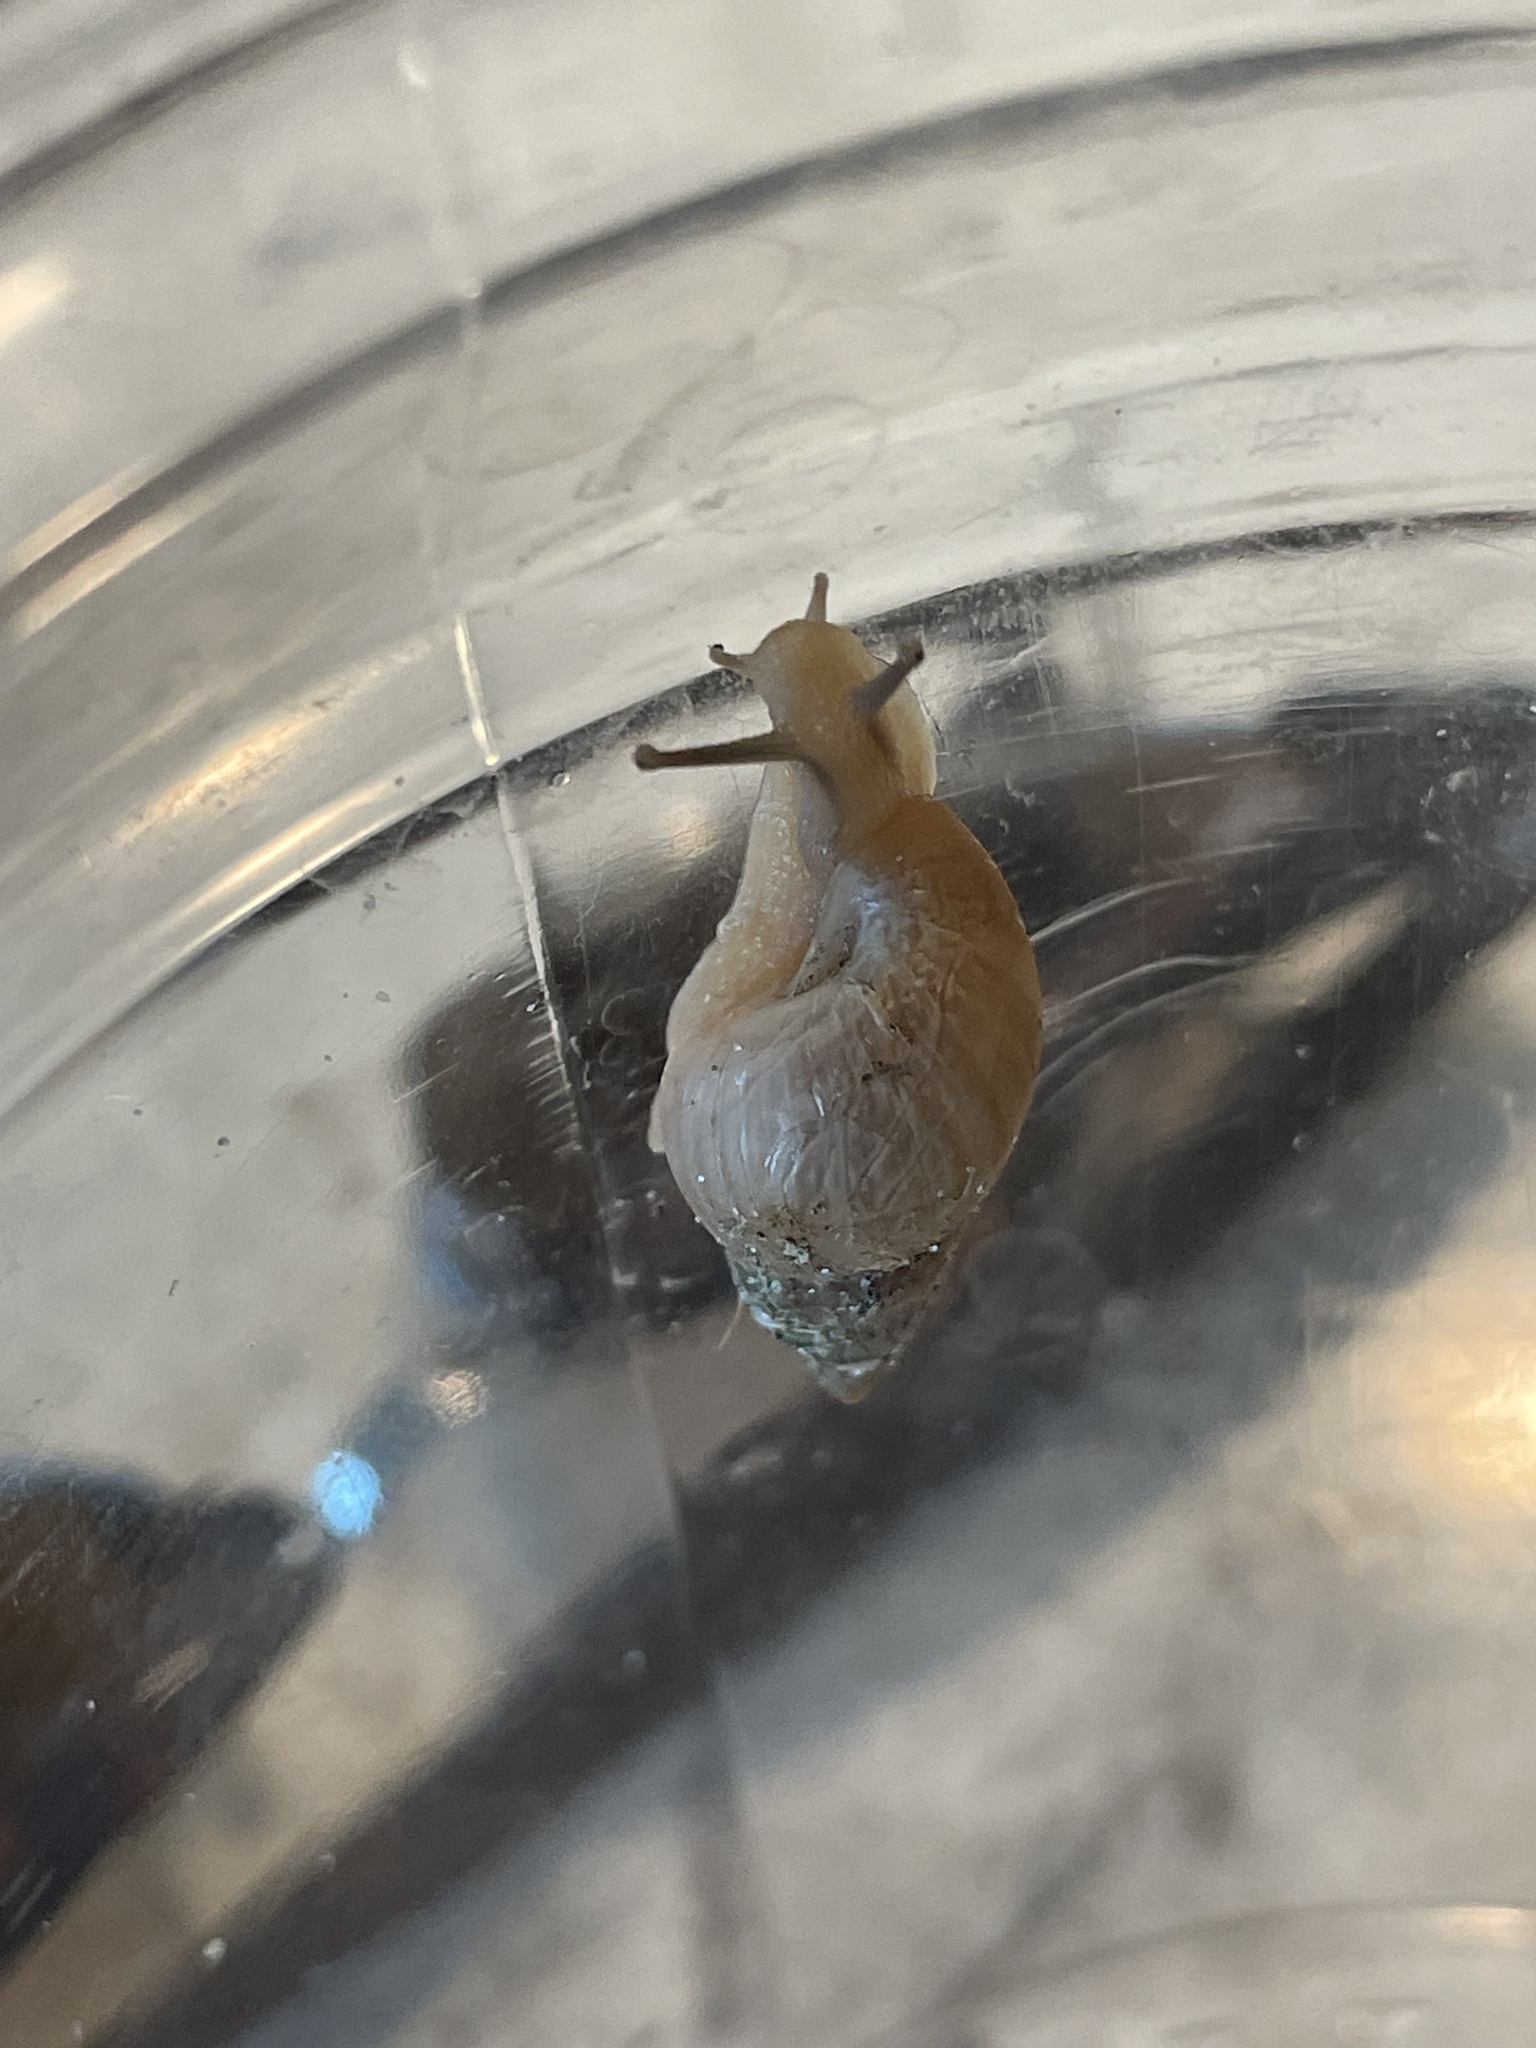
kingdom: Animalia
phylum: Mollusca
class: Gastropoda
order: Stylommatophora
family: Bulimulidae
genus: Bulimulus
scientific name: Bulimulus bonariensis
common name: Snail
